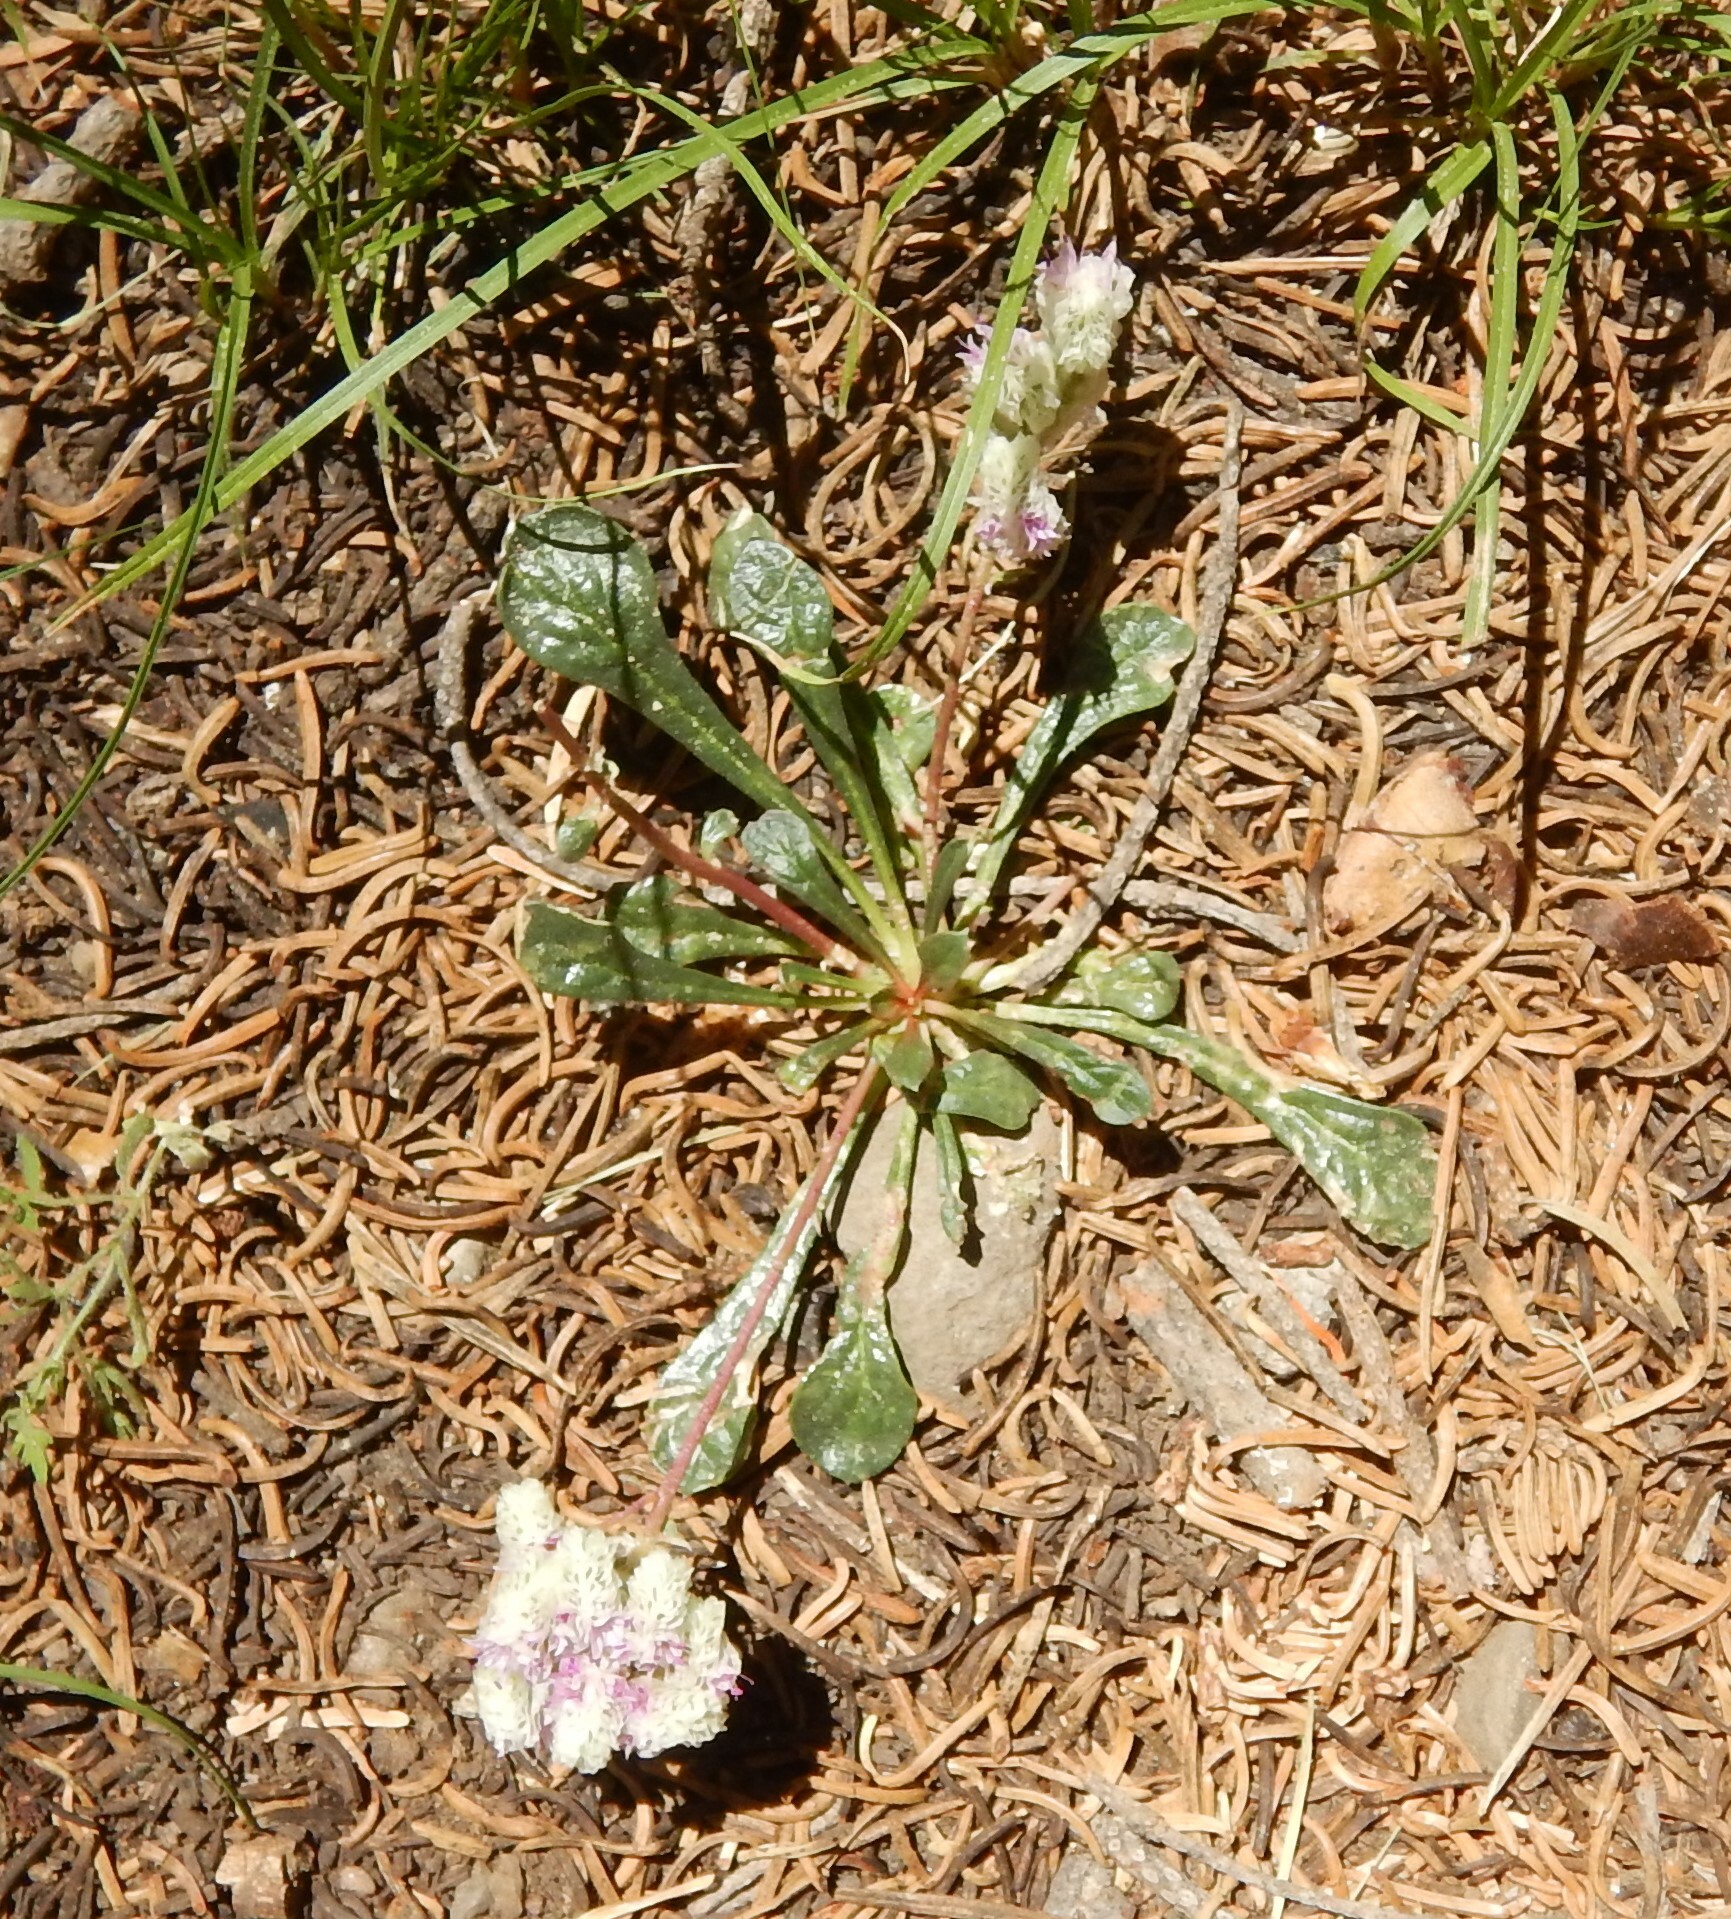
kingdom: Plantae
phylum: Tracheophyta
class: Magnoliopsida
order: Caryophyllales
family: Montiaceae
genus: Calyptridium
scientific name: Calyptridium monospermum
